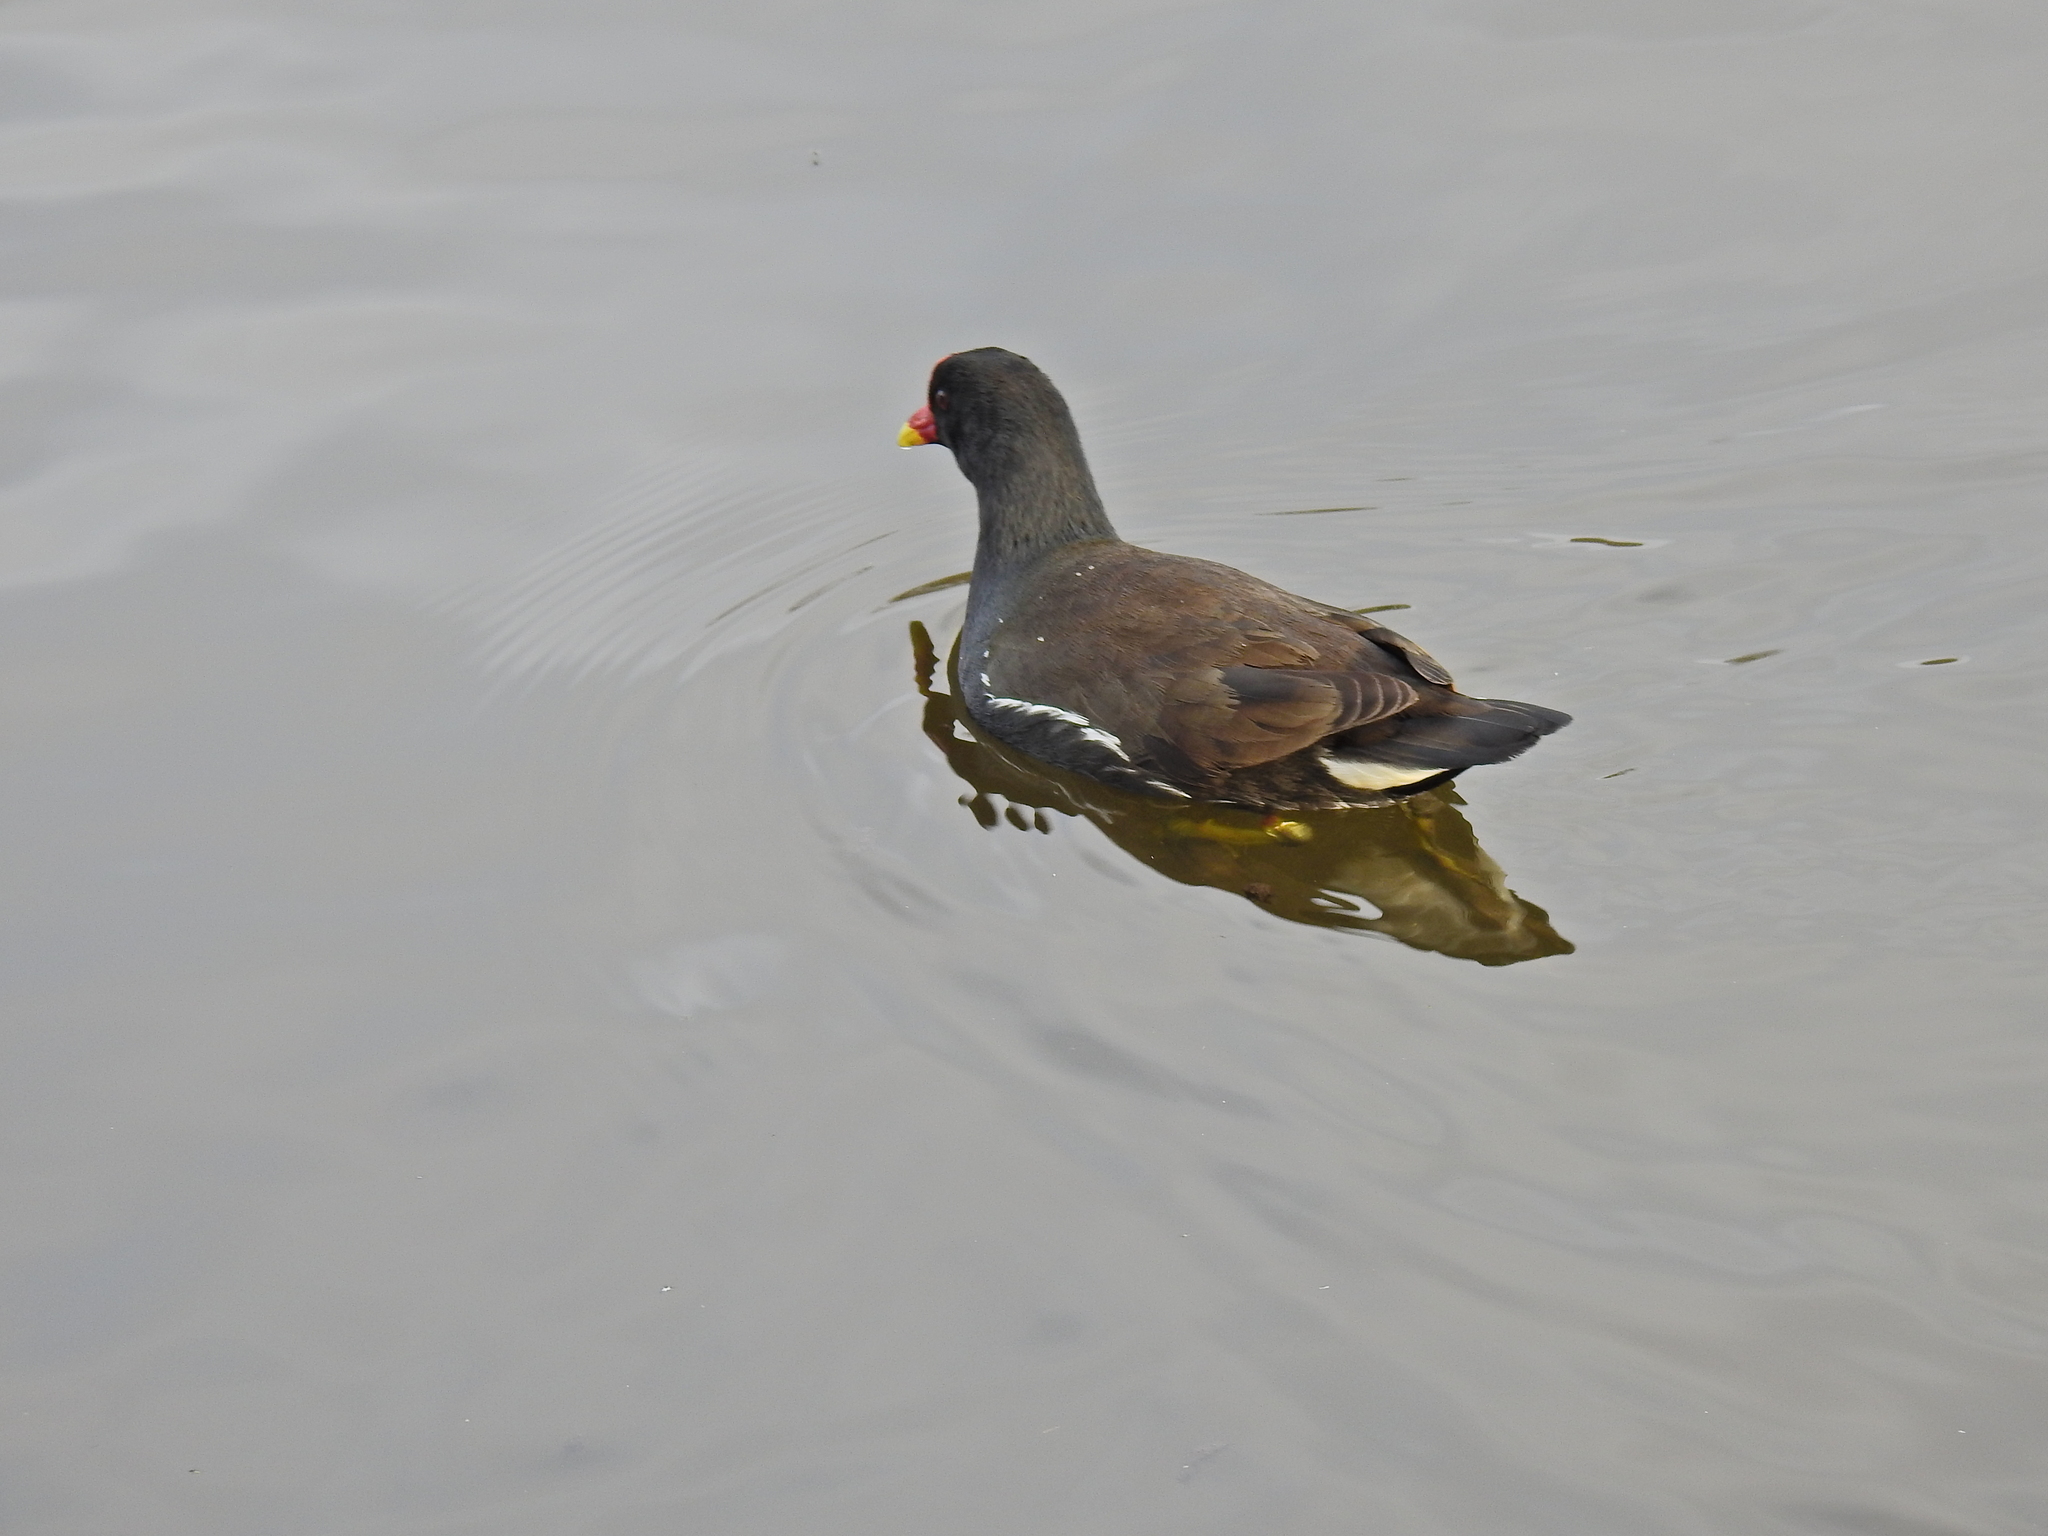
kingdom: Animalia
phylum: Chordata
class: Aves
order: Gruiformes
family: Rallidae
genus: Gallinula
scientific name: Gallinula chloropus
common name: Common moorhen
